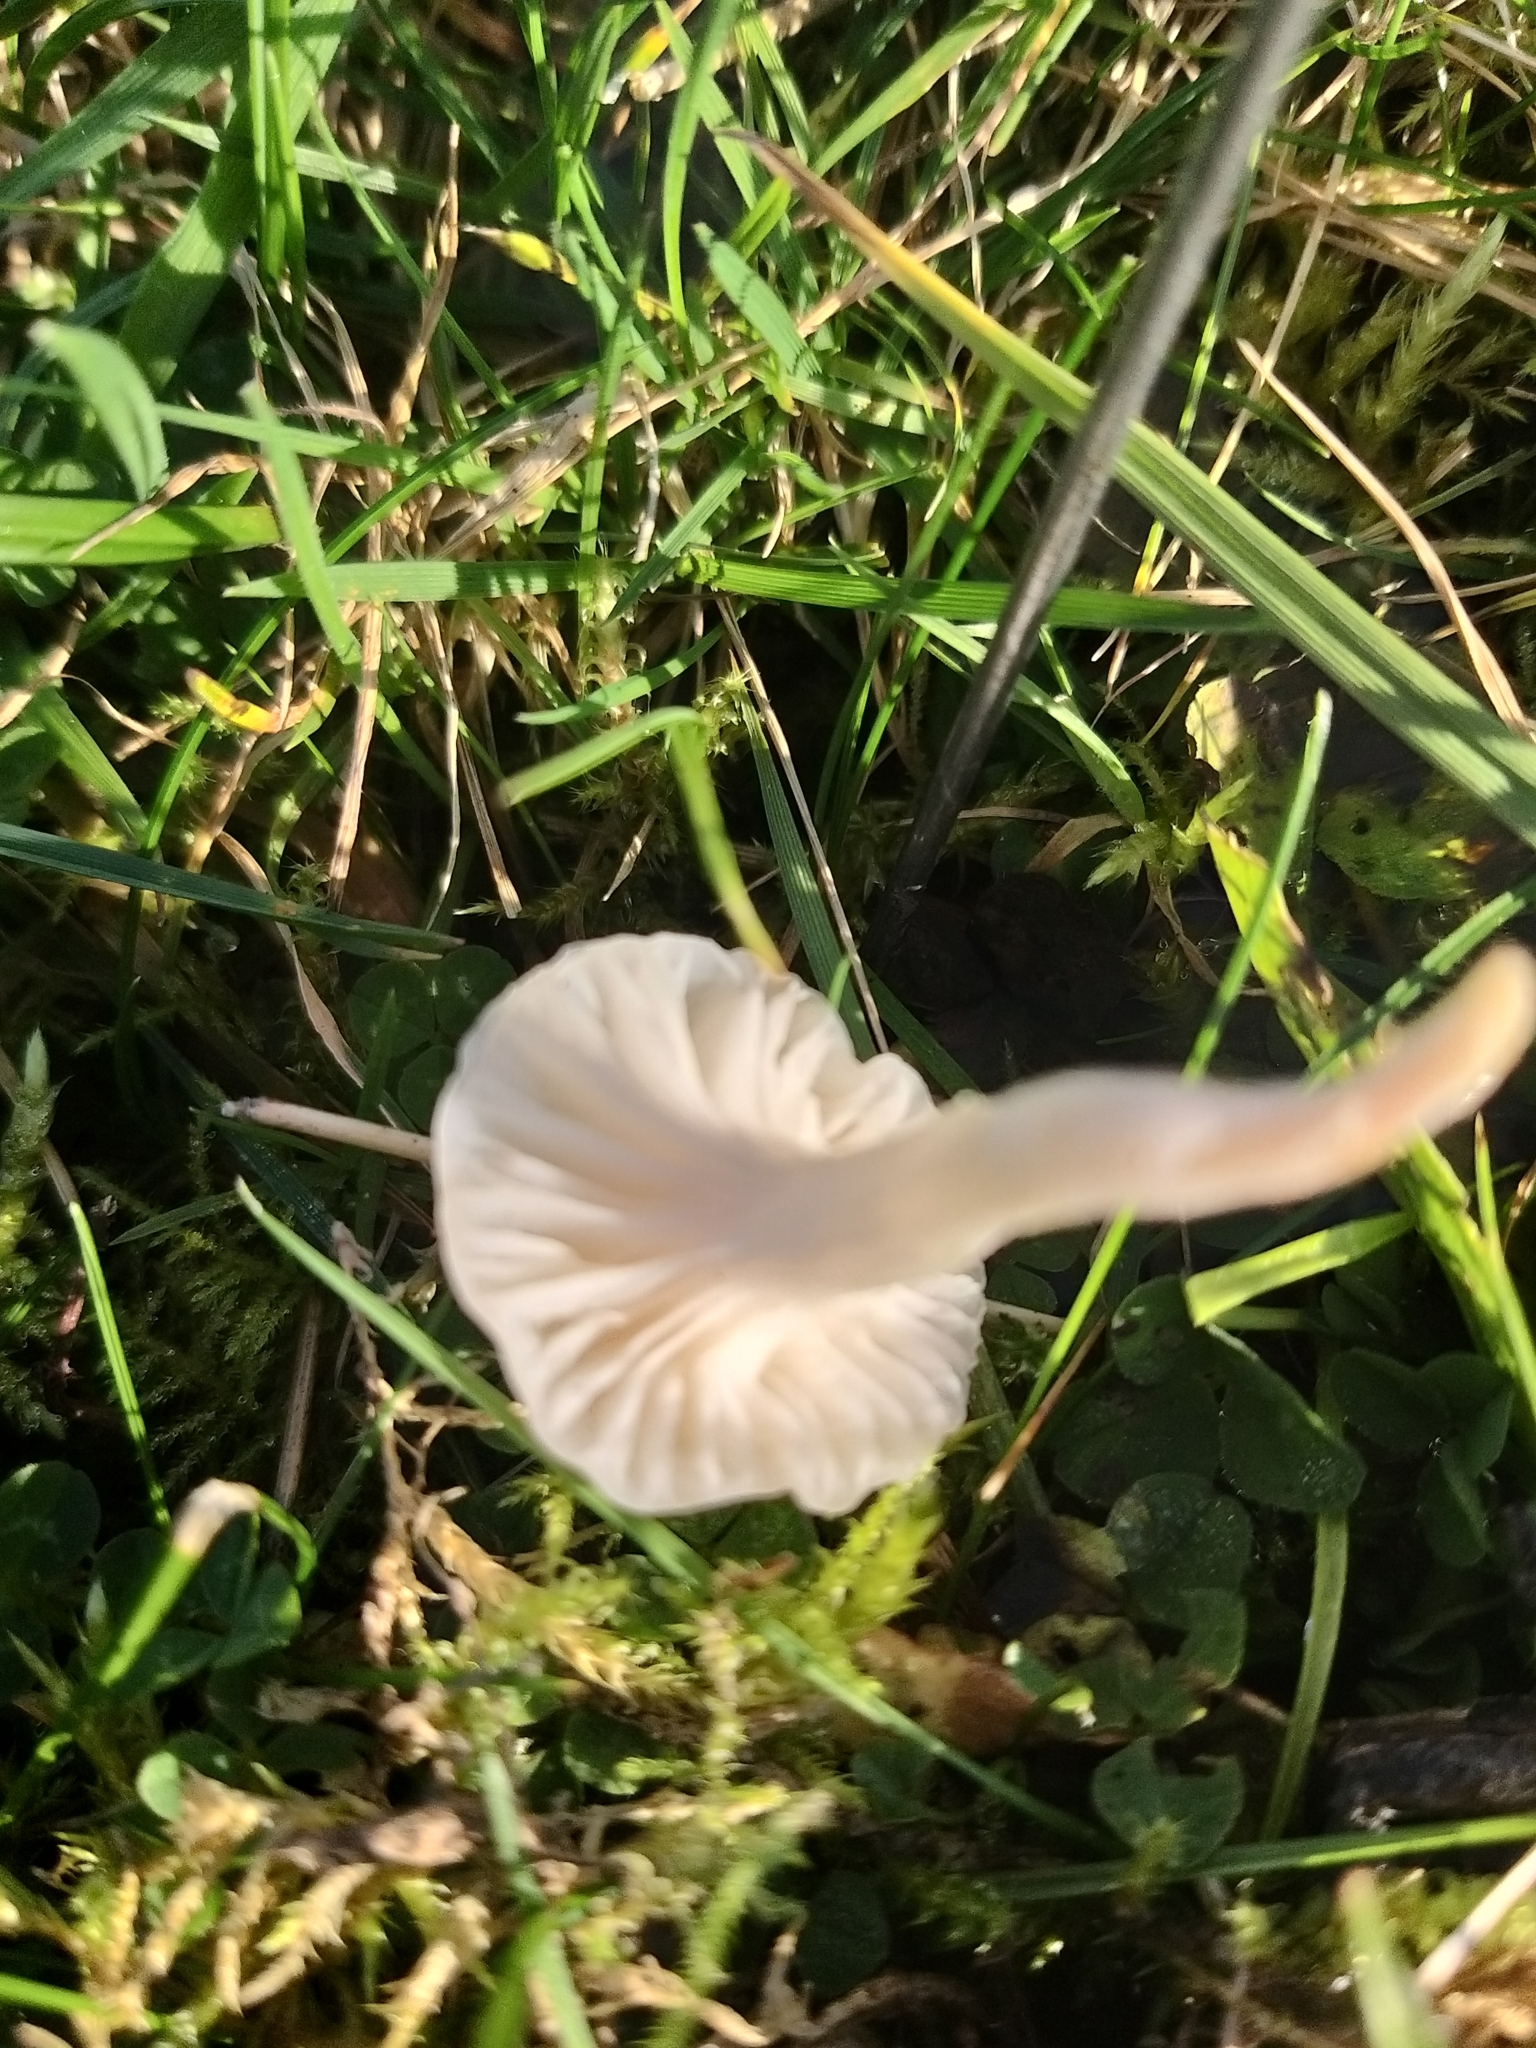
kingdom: Fungi
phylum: Basidiomycota
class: Agaricomycetes
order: Agaricales
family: Hygrophoraceae
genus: Cuphophyllus
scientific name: Cuphophyllus virgineus
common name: Snowy waxcap
